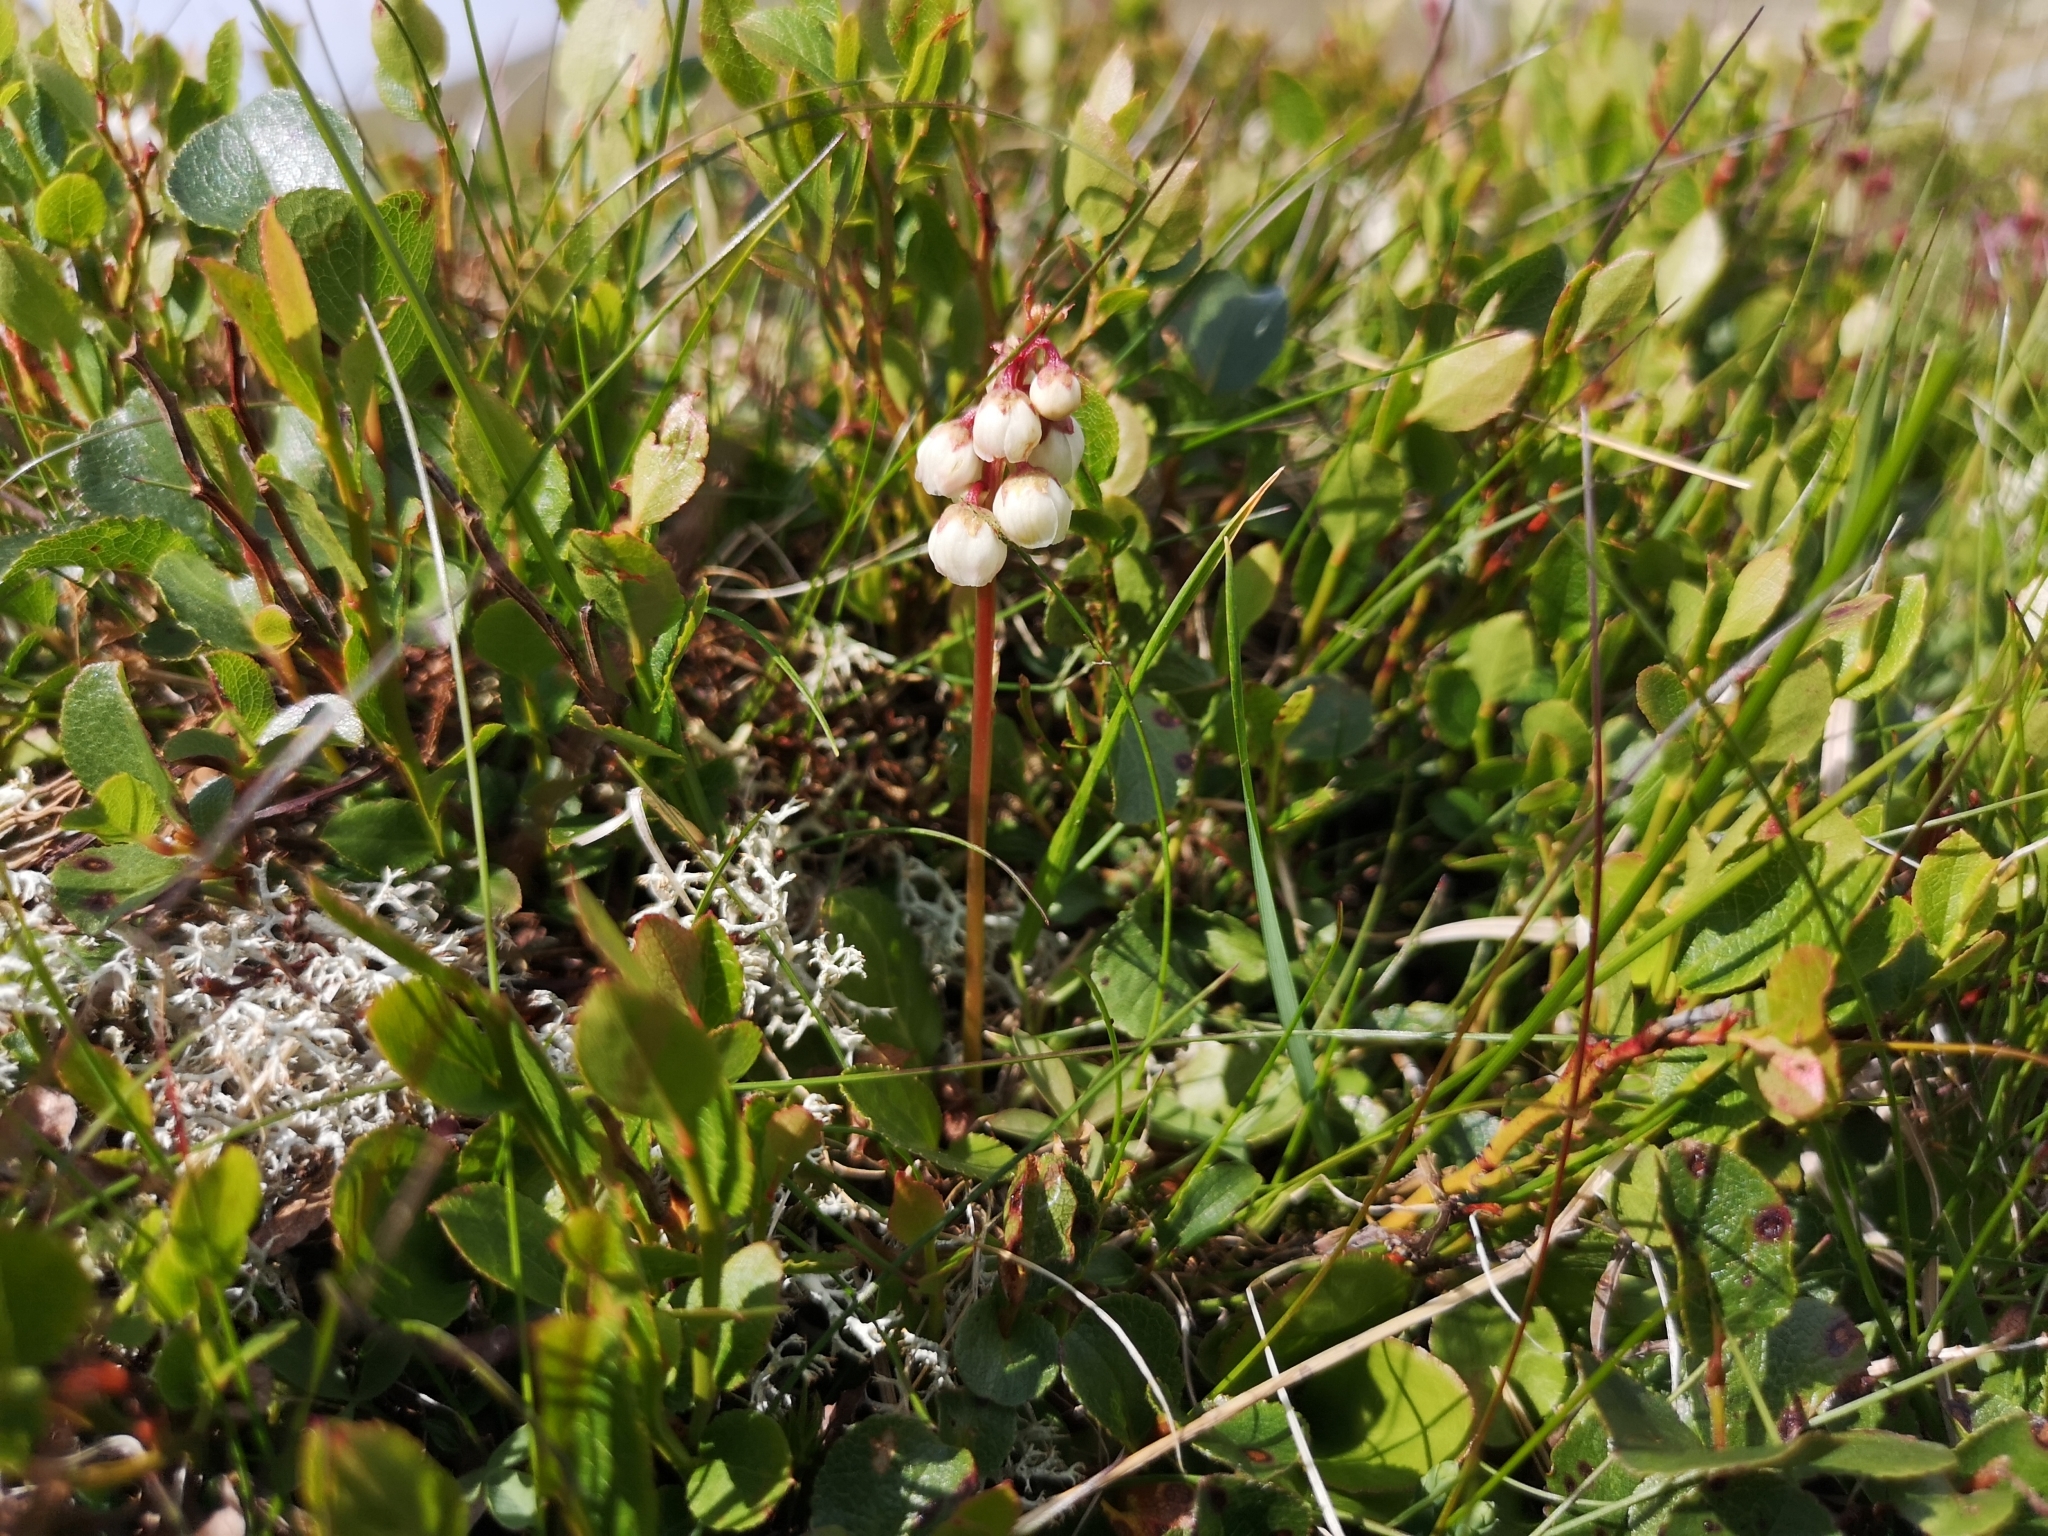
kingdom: Plantae
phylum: Tracheophyta
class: Magnoliopsida
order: Ericales
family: Ericaceae
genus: Pyrola
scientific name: Pyrola minor
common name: Common wintergreen
